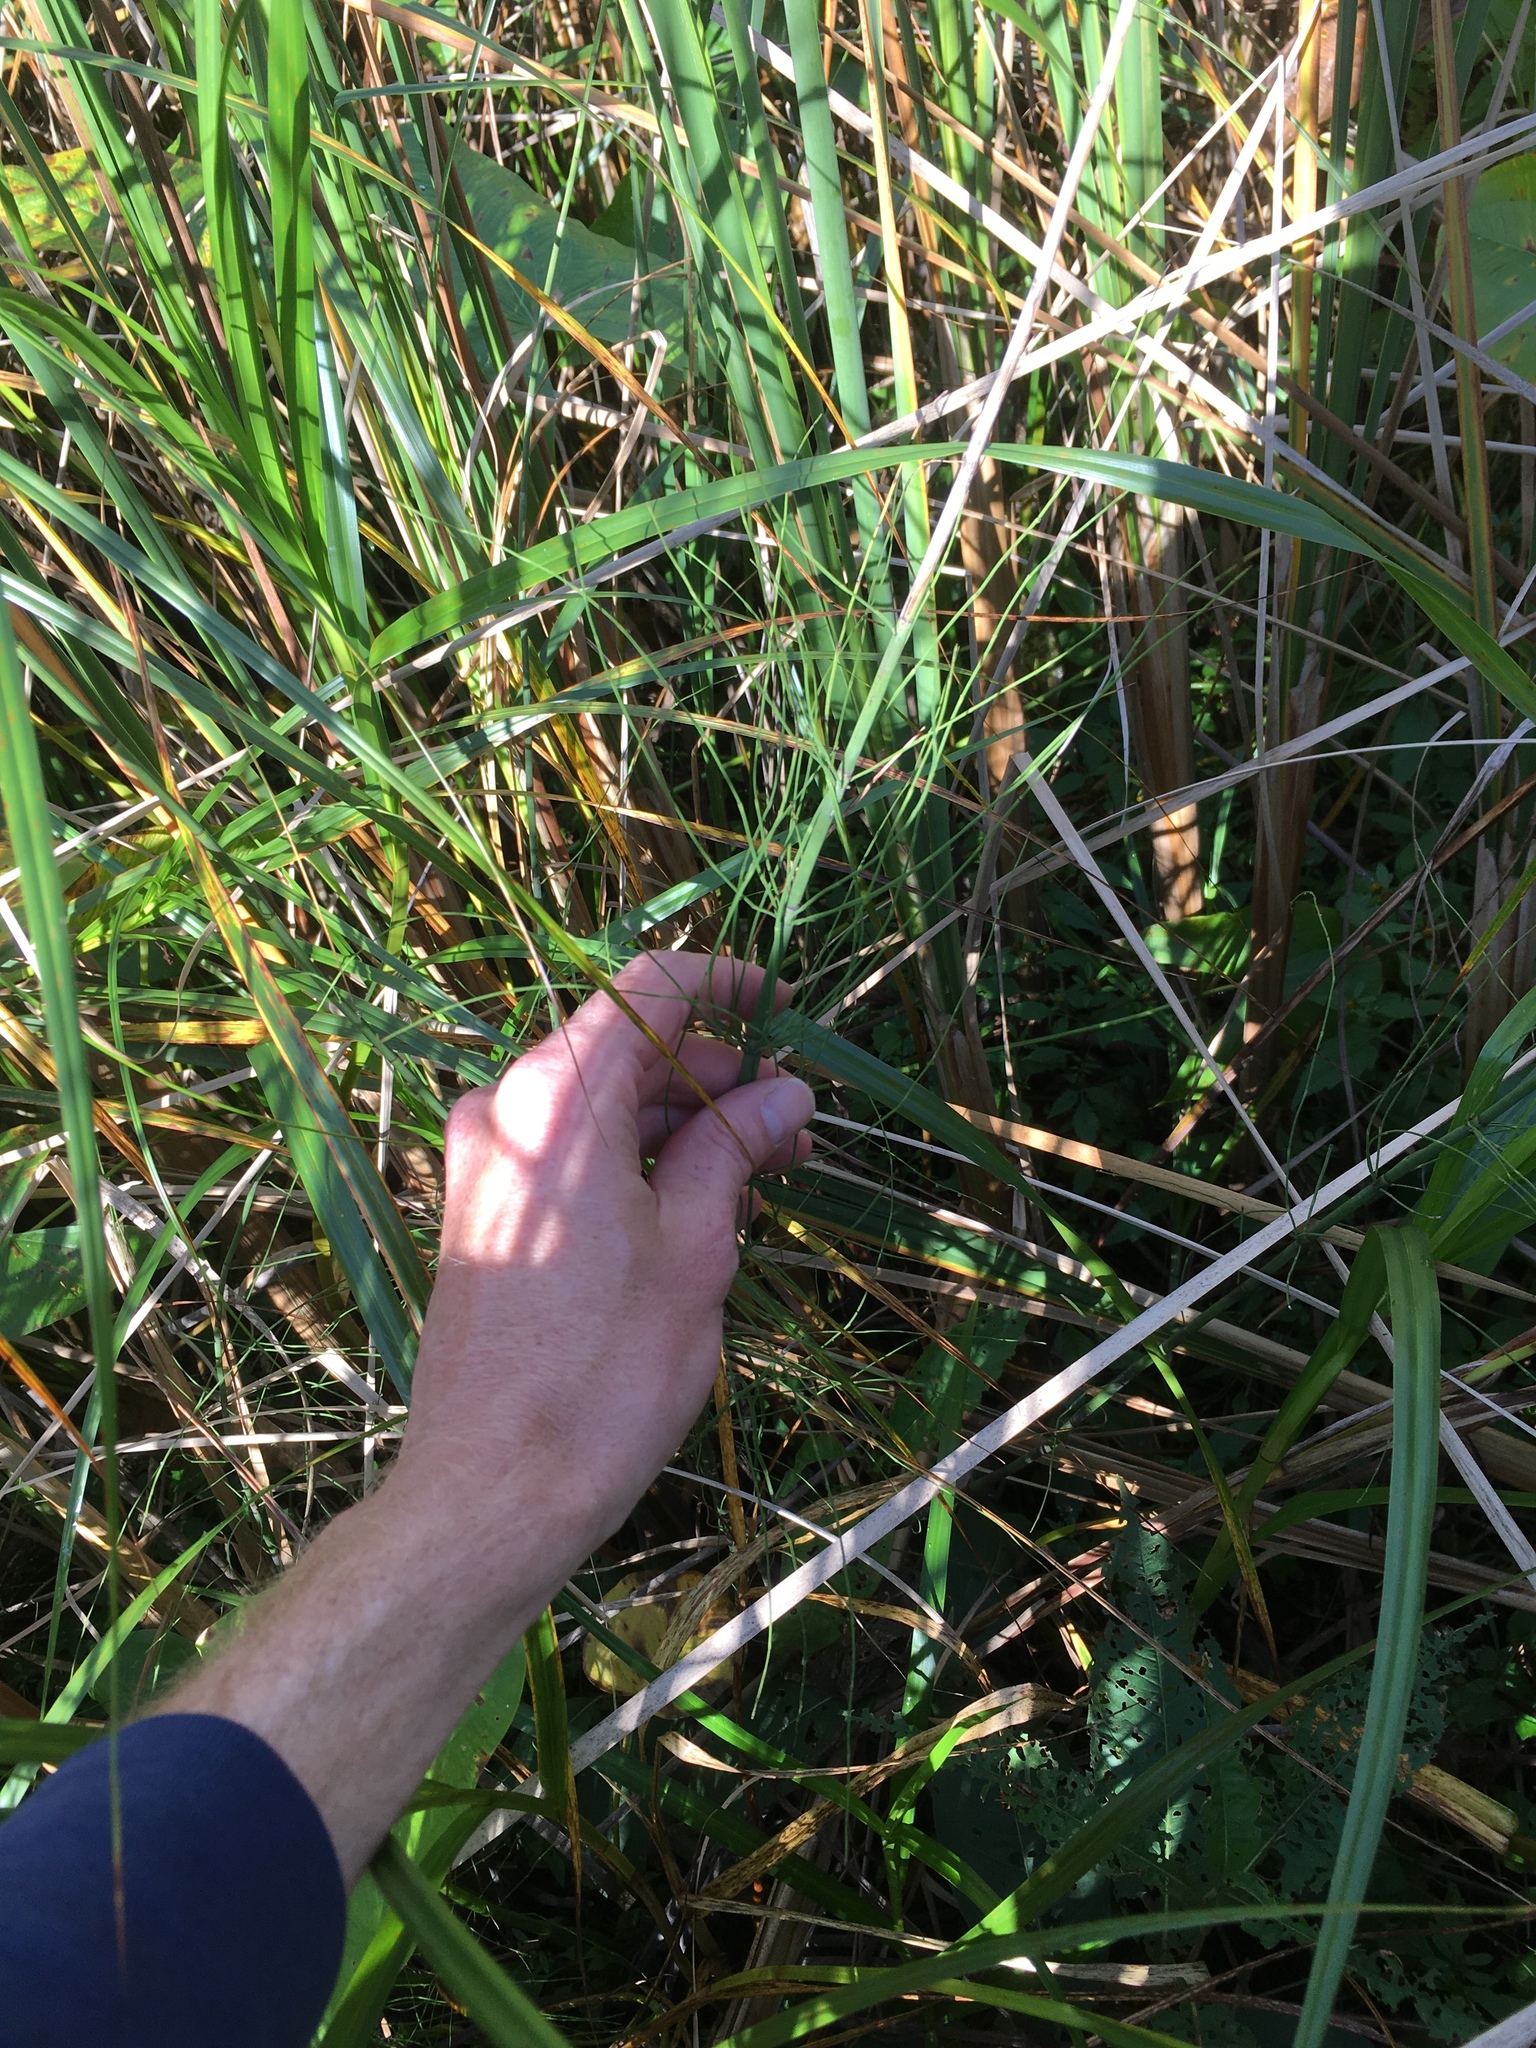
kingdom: Plantae
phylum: Tracheophyta
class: Polypodiopsida
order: Equisetales
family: Equisetaceae
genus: Equisetum
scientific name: Equisetum fluviatile
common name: Water horsetail
